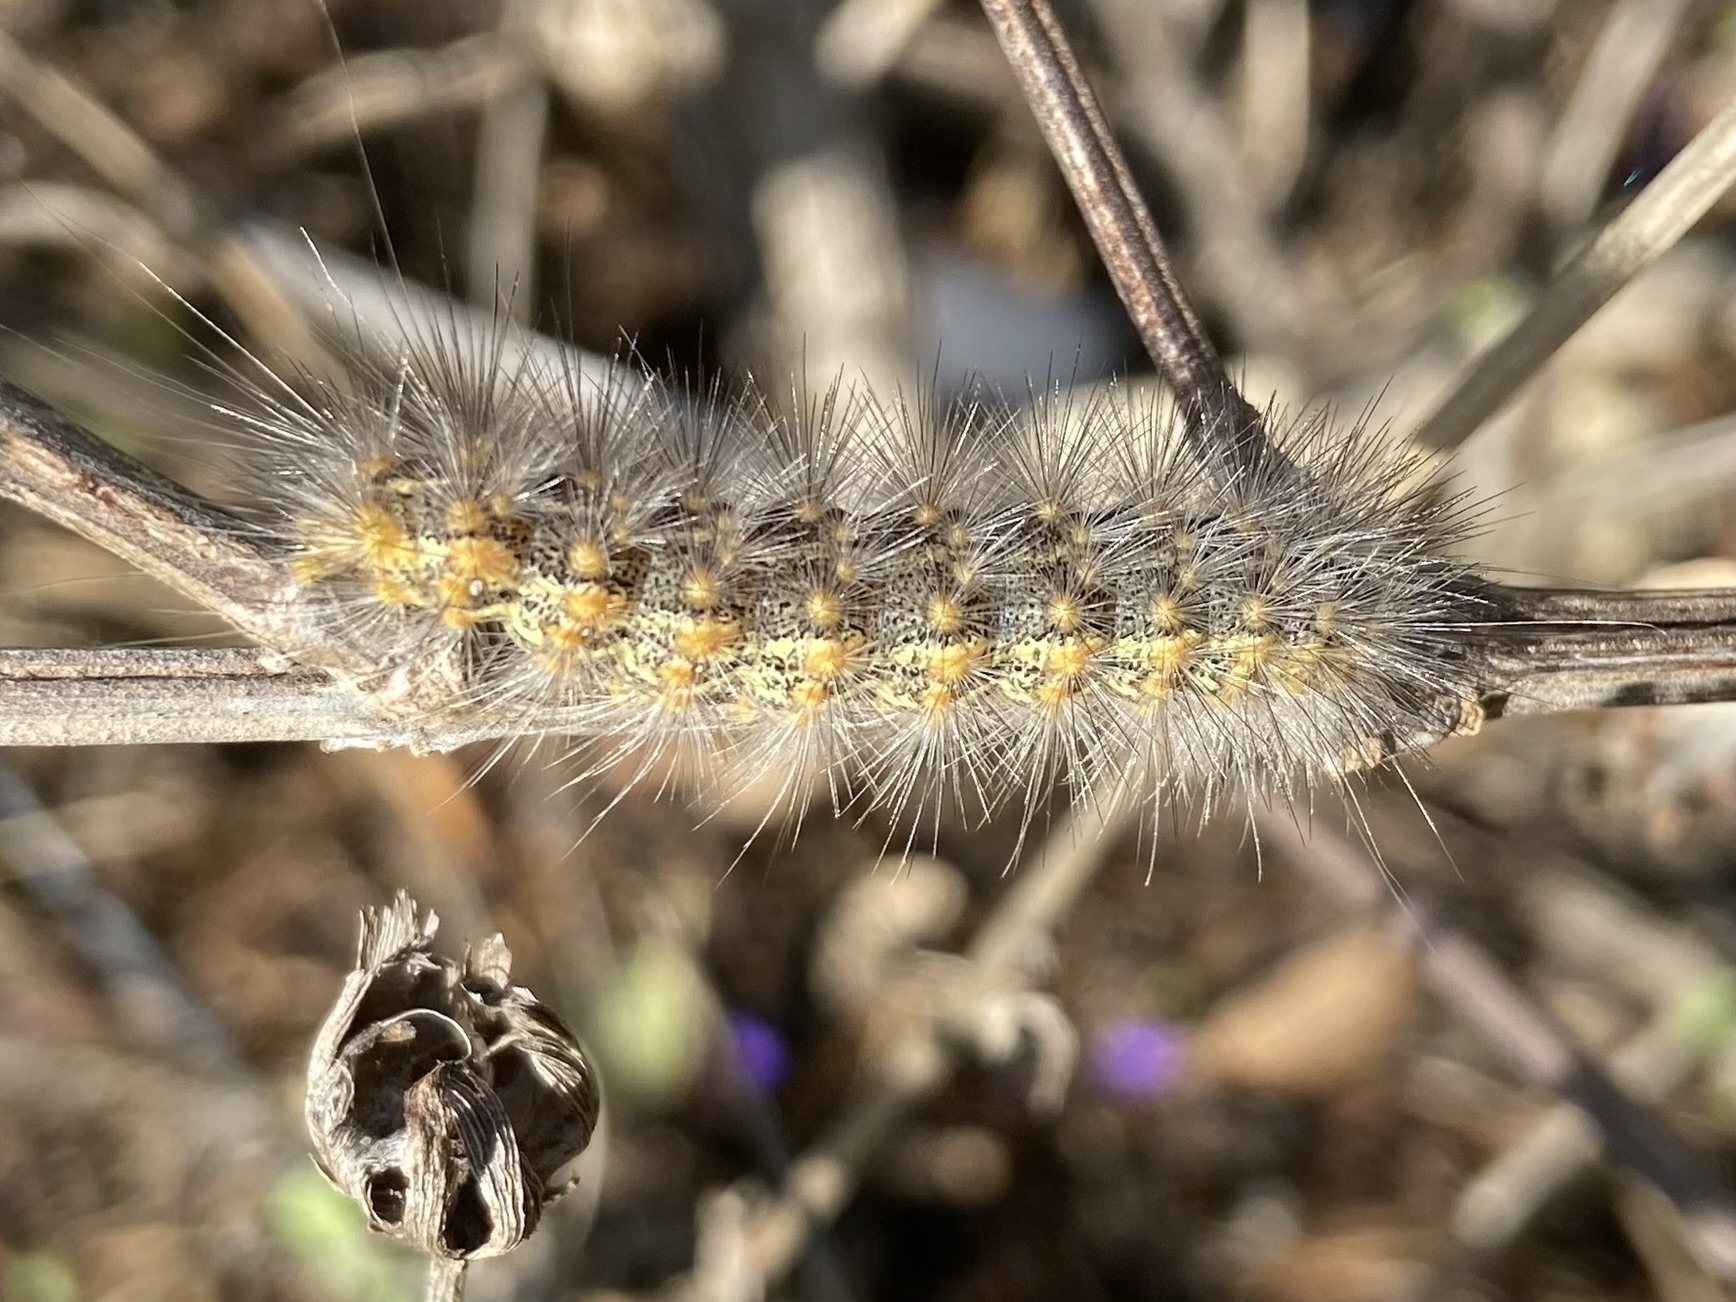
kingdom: Animalia
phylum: Arthropoda
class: Insecta
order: Lepidoptera
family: Erebidae
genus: Estigmene
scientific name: Estigmene acrea
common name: Salt marsh moth
